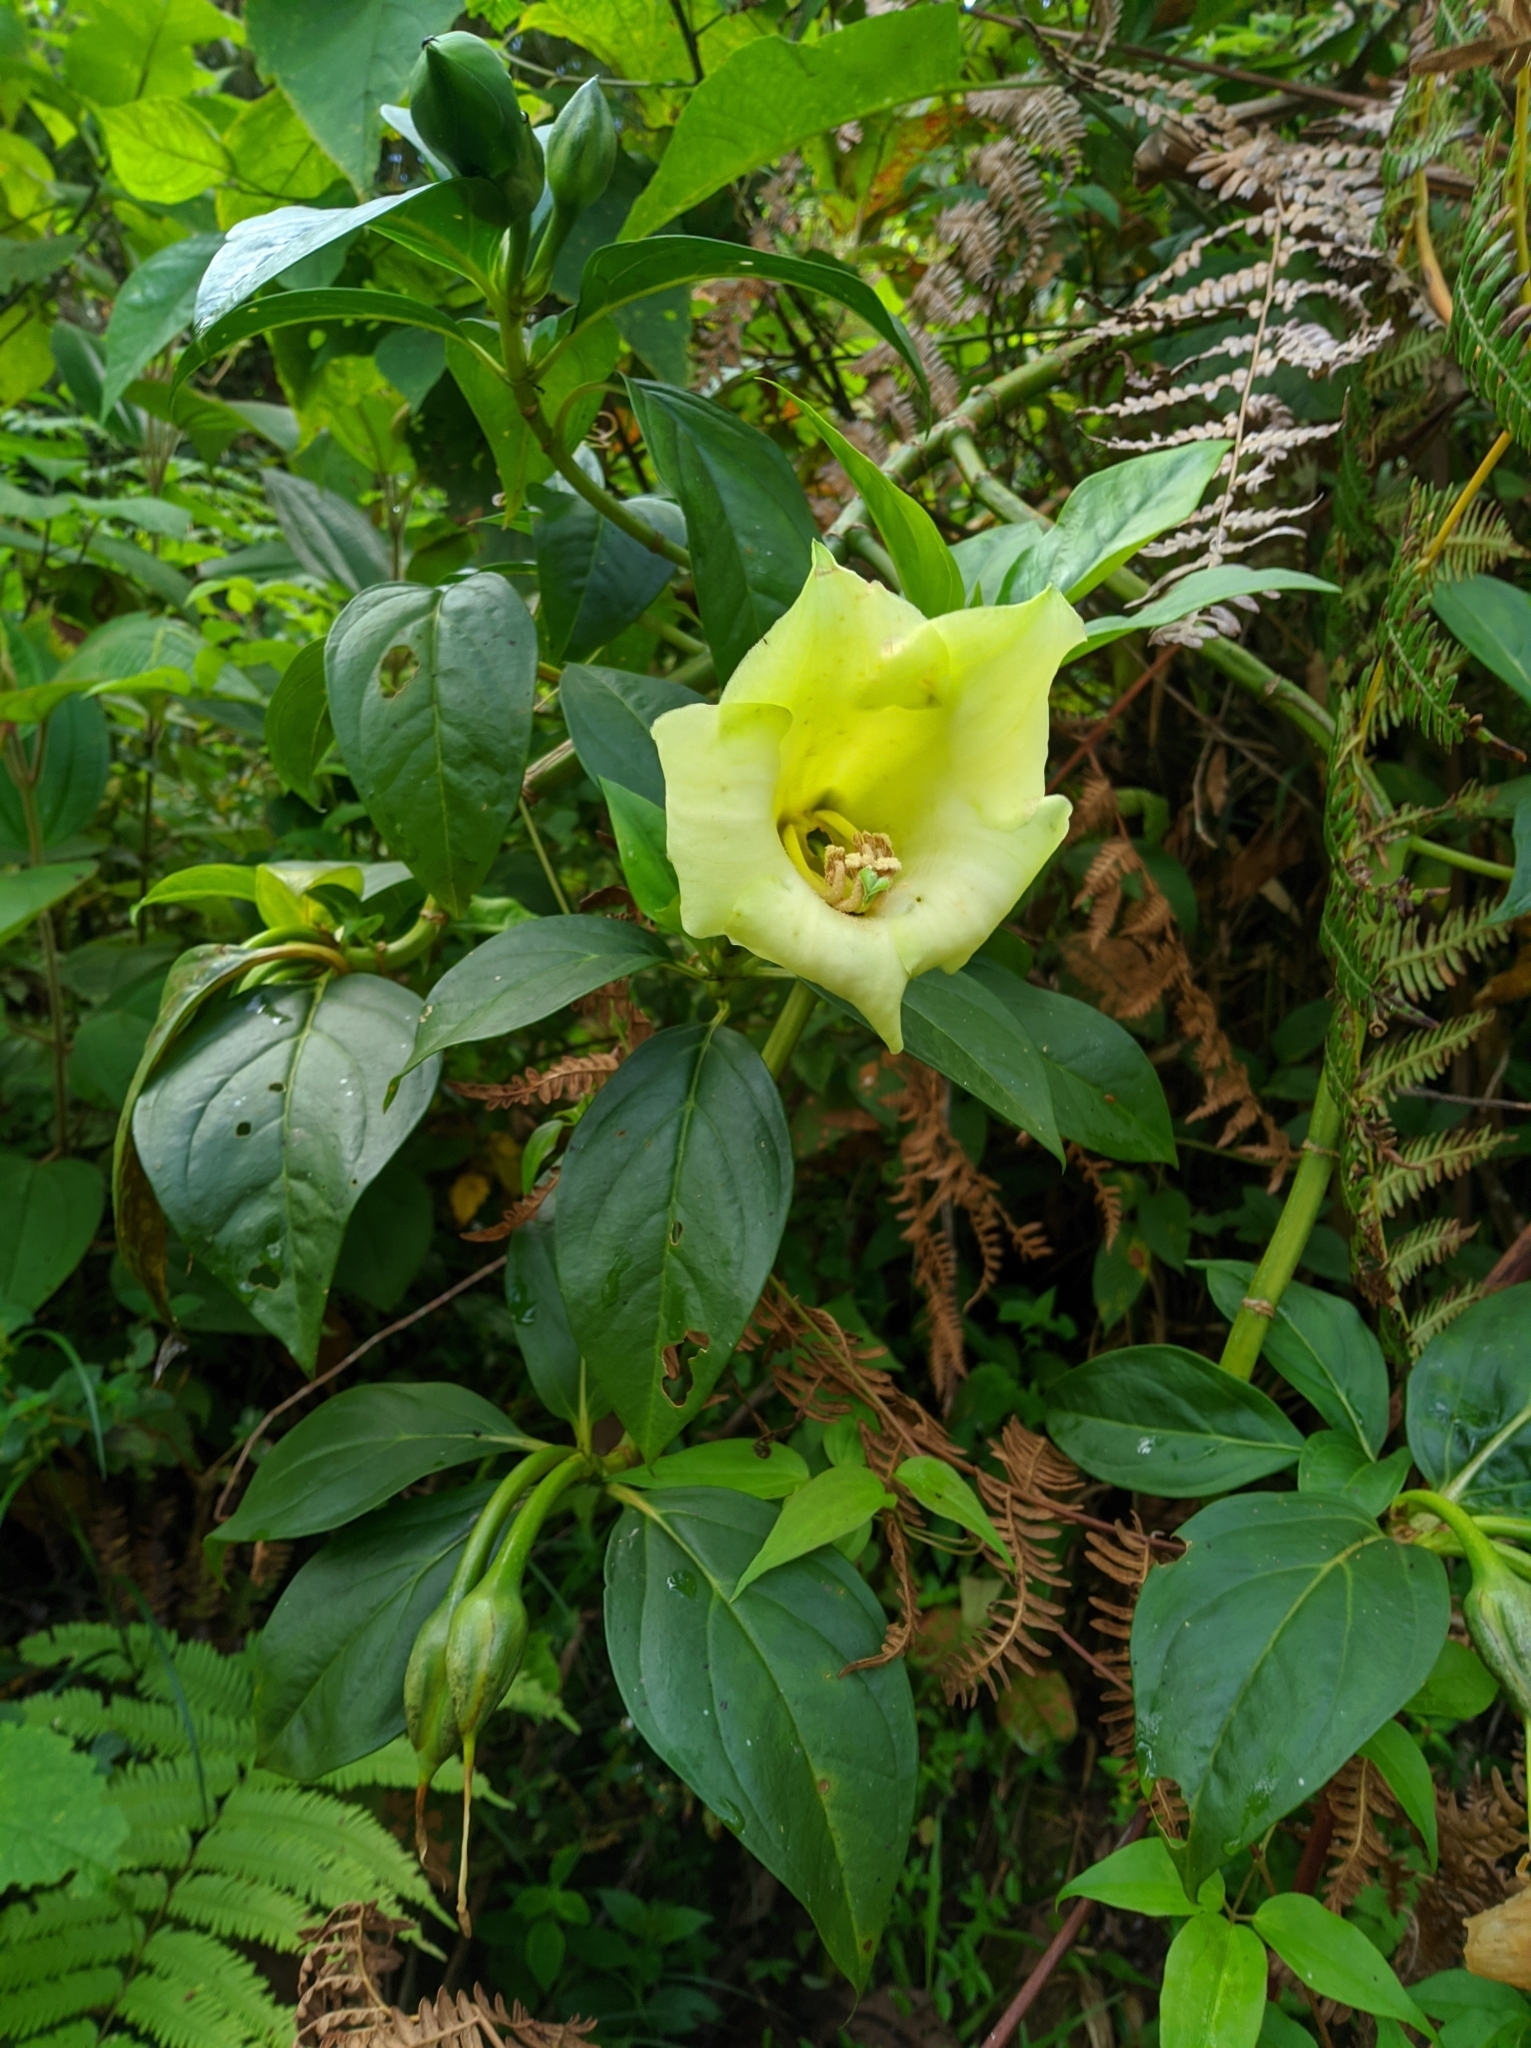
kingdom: Plantae
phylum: Tracheophyta
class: Magnoliopsida
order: Gentianales
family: Gentianaceae
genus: Symbolanthus
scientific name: Symbolanthus vasculosus
